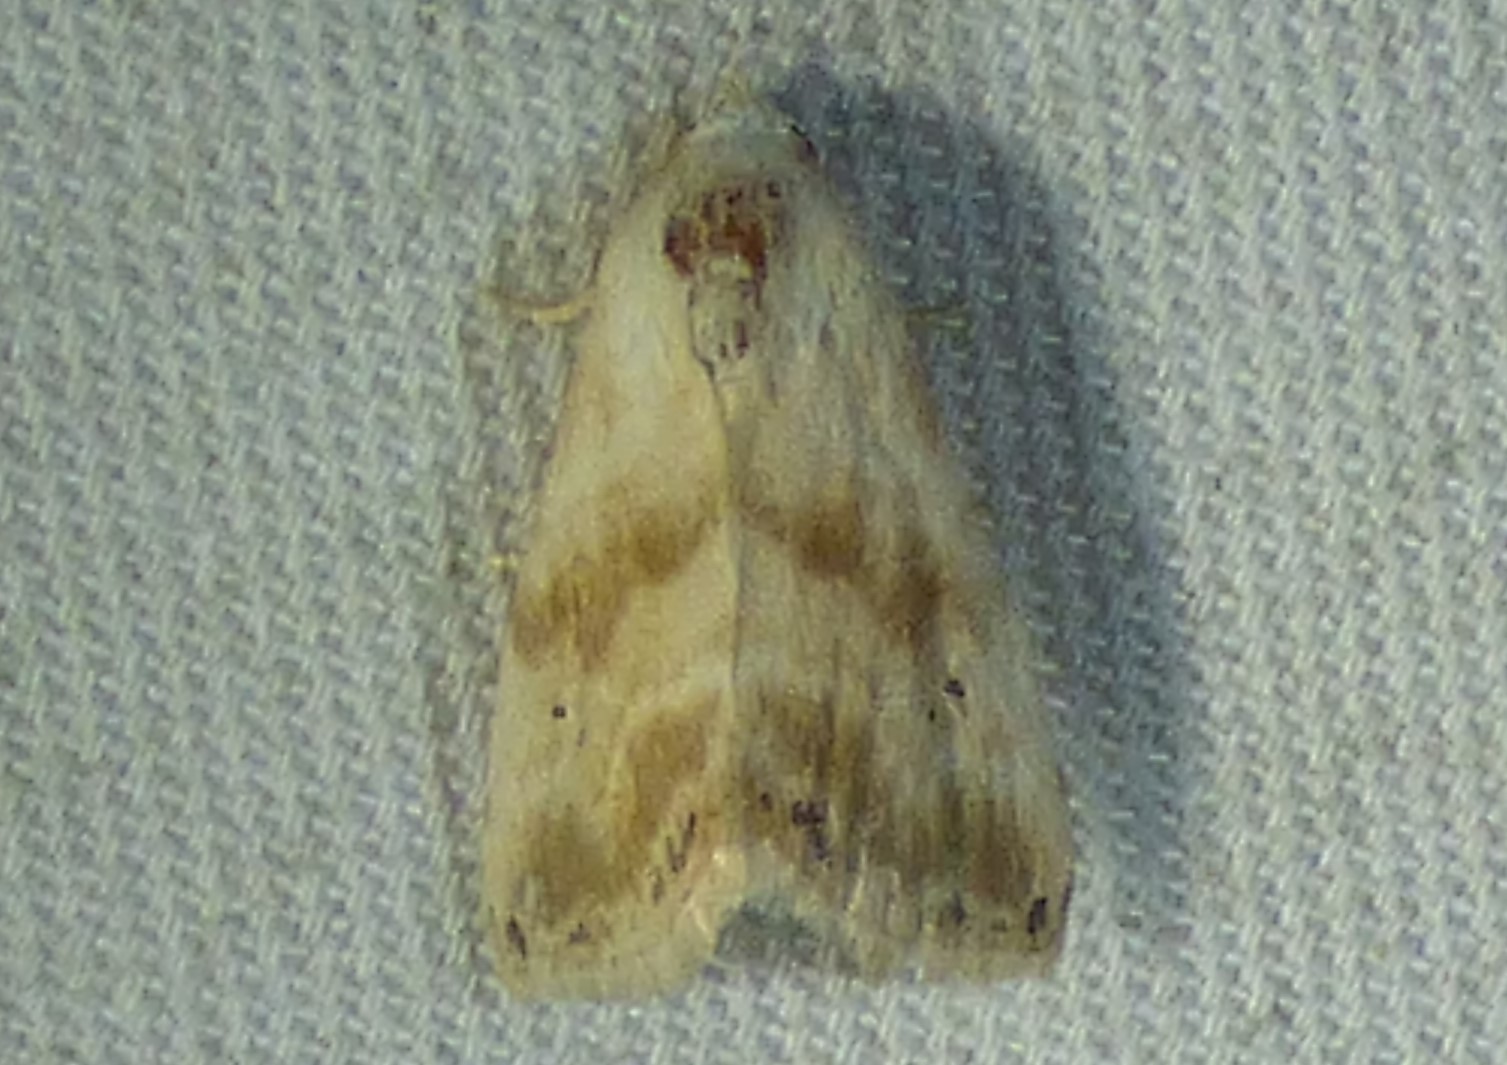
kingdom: Animalia
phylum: Arthropoda
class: Insecta
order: Lepidoptera
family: Noctuidae
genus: Eublemma
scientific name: Eublemma minima
